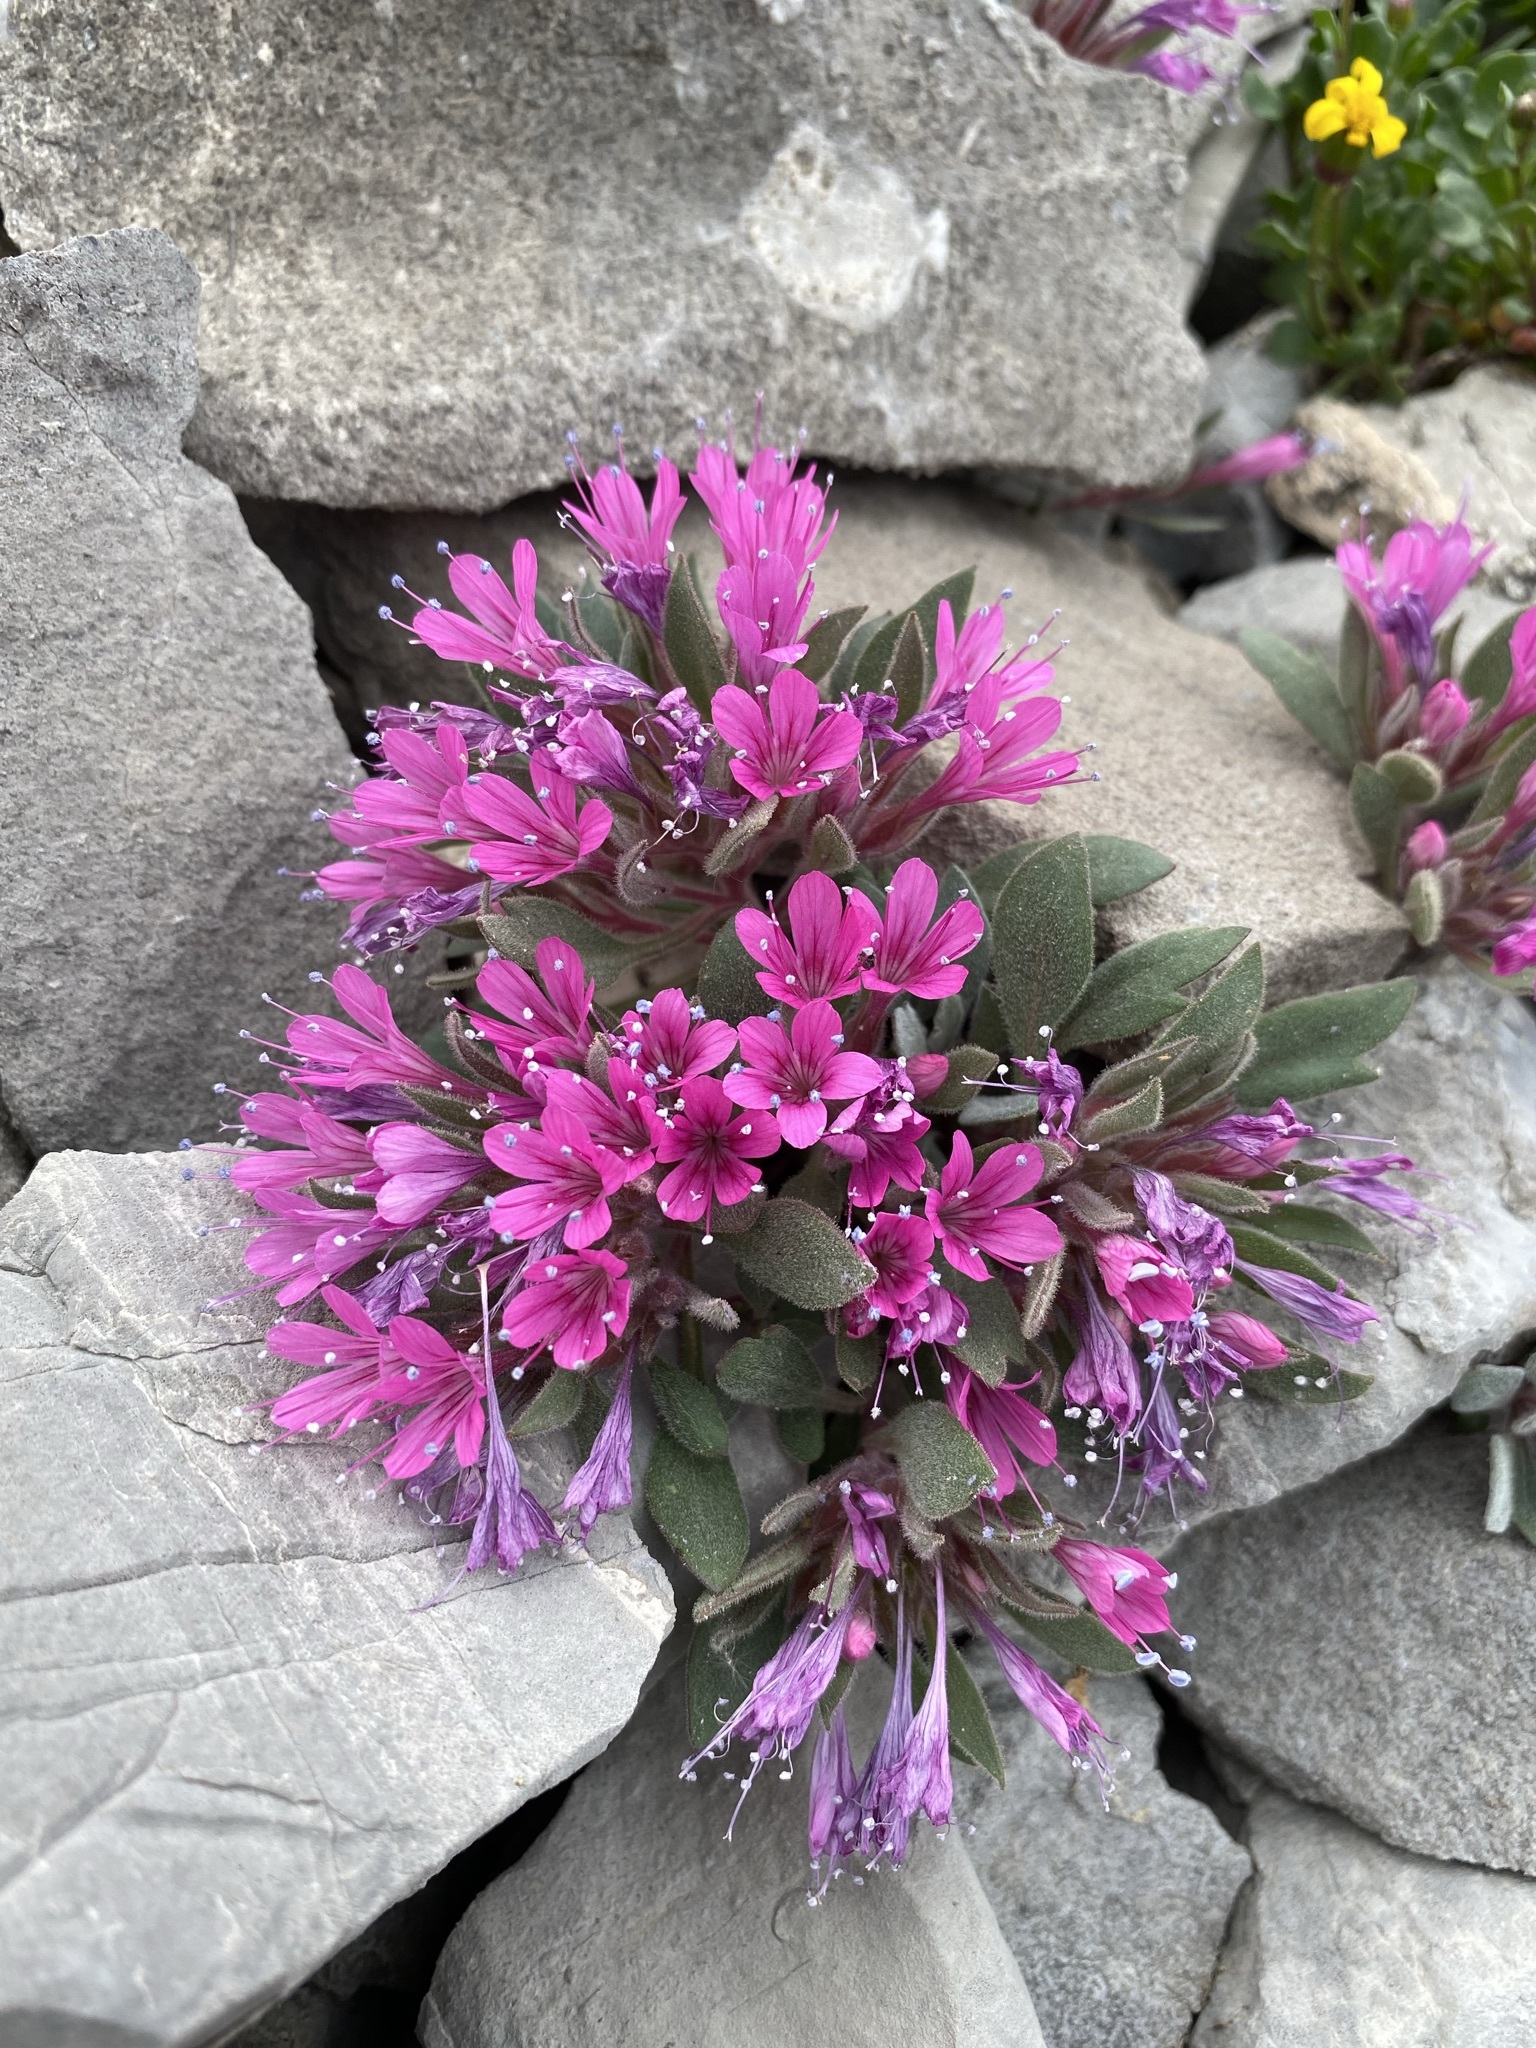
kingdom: Plantae
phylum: Tracheophyta
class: Magnoliopsida
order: Ericales
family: Polemoniaceae
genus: Collomia
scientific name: Collomia debilis
